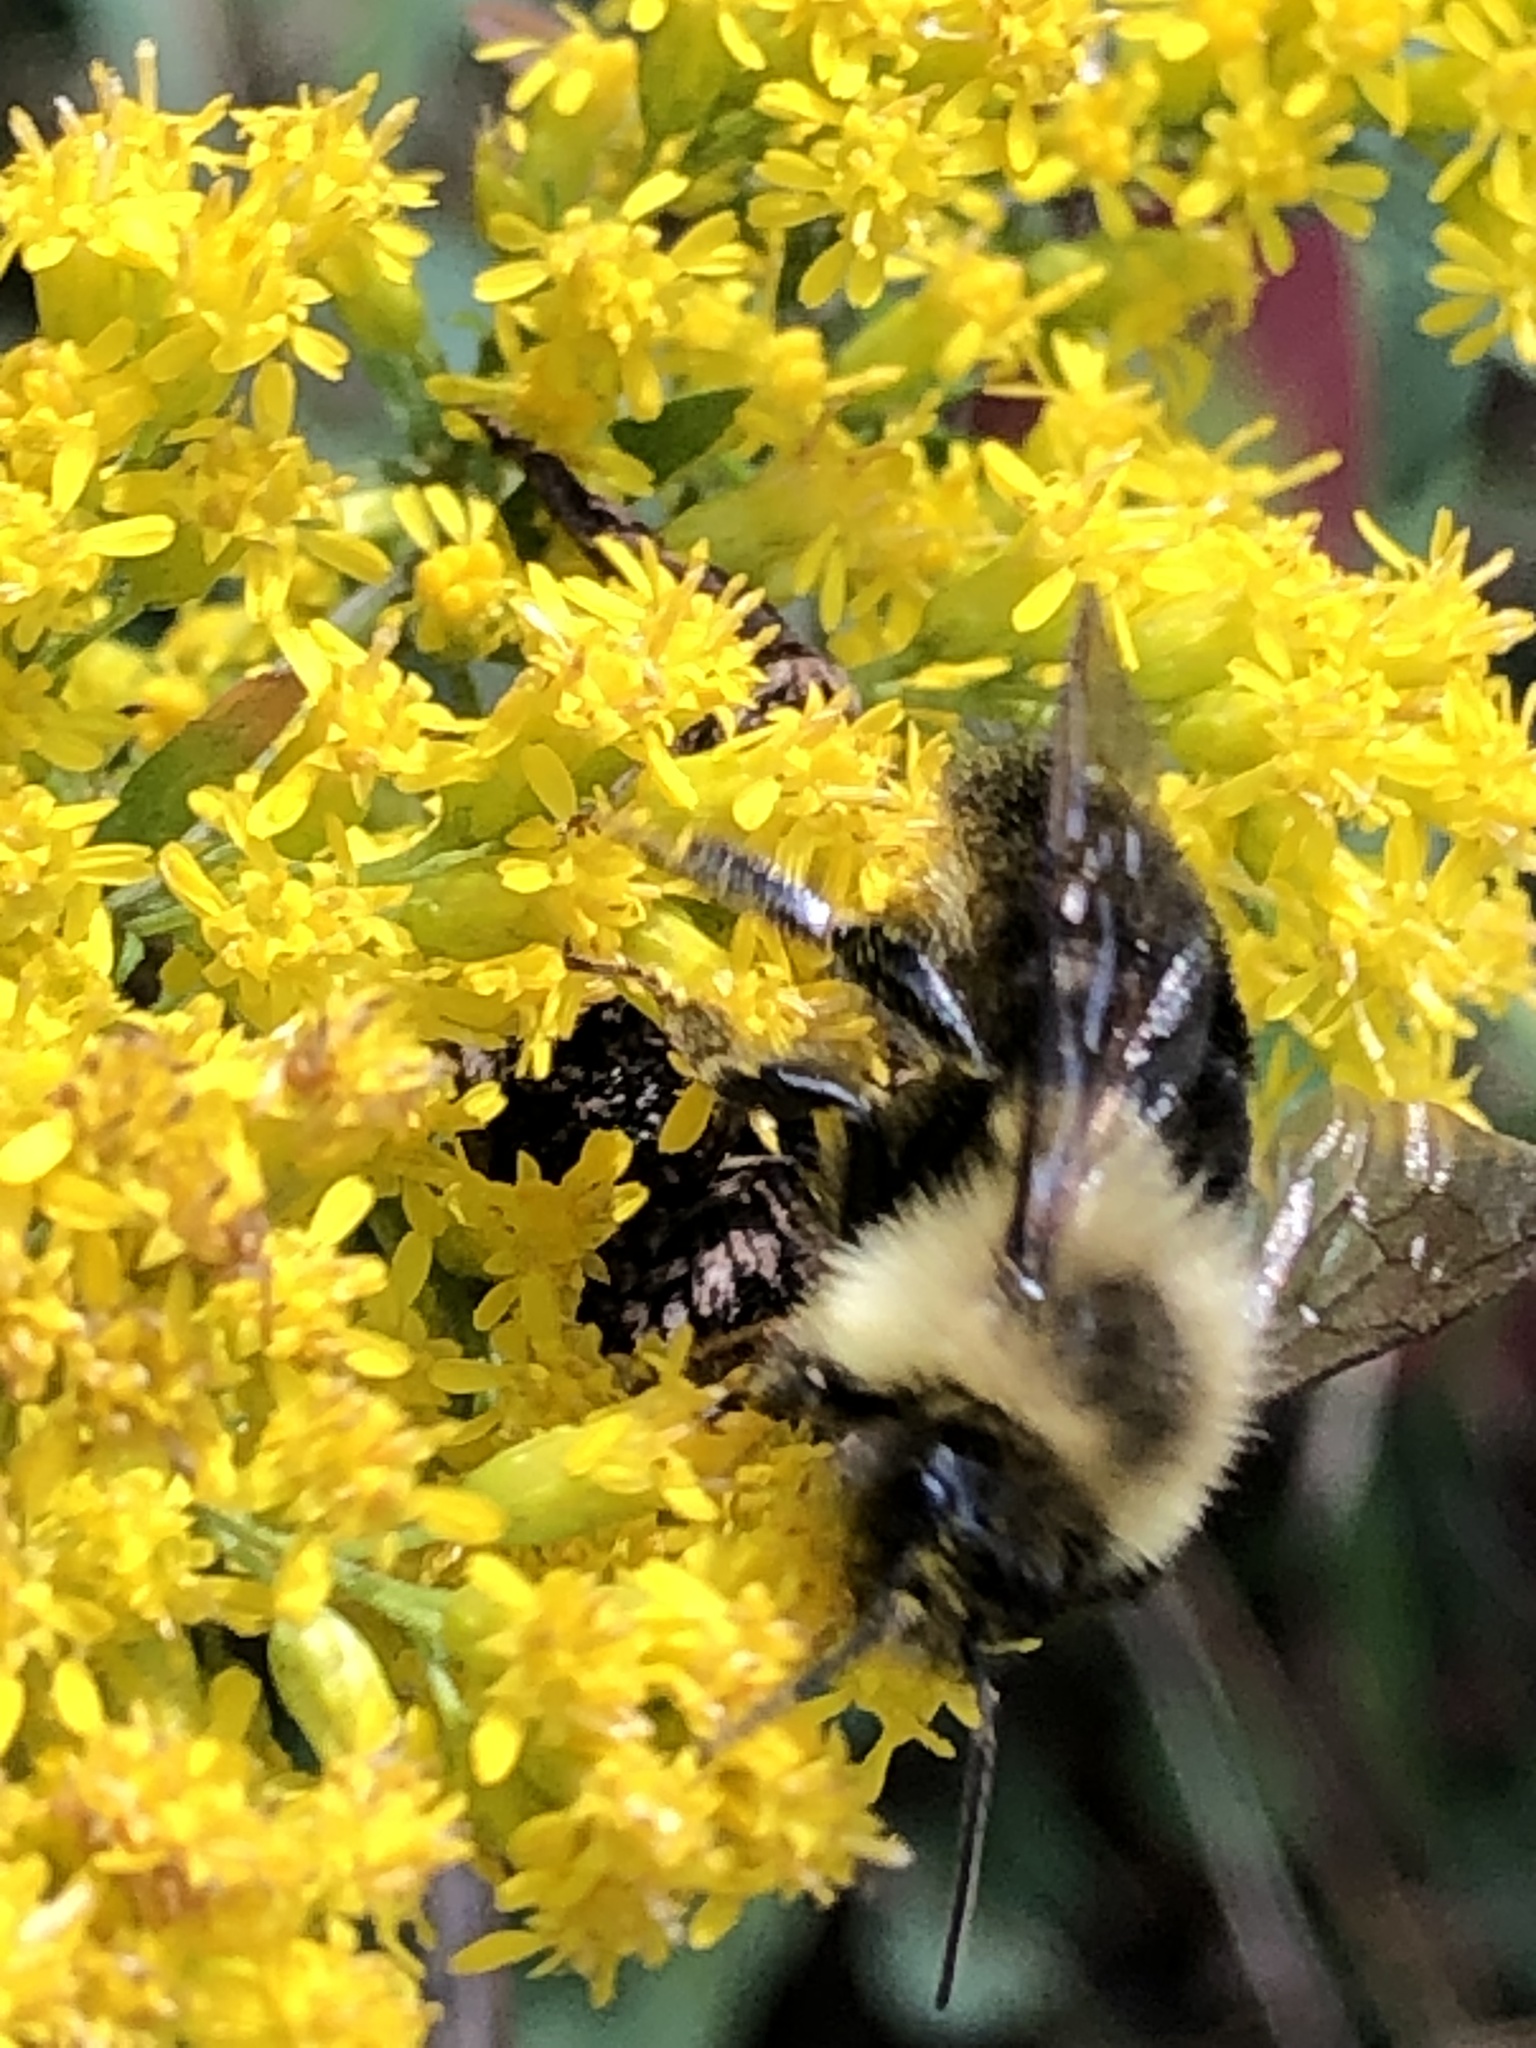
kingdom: Animalia
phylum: Arthropoda
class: Insecta
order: Hymenoptera
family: Apidae
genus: Bombus
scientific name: Bombus impatiens
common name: Common eastern bumble bee
